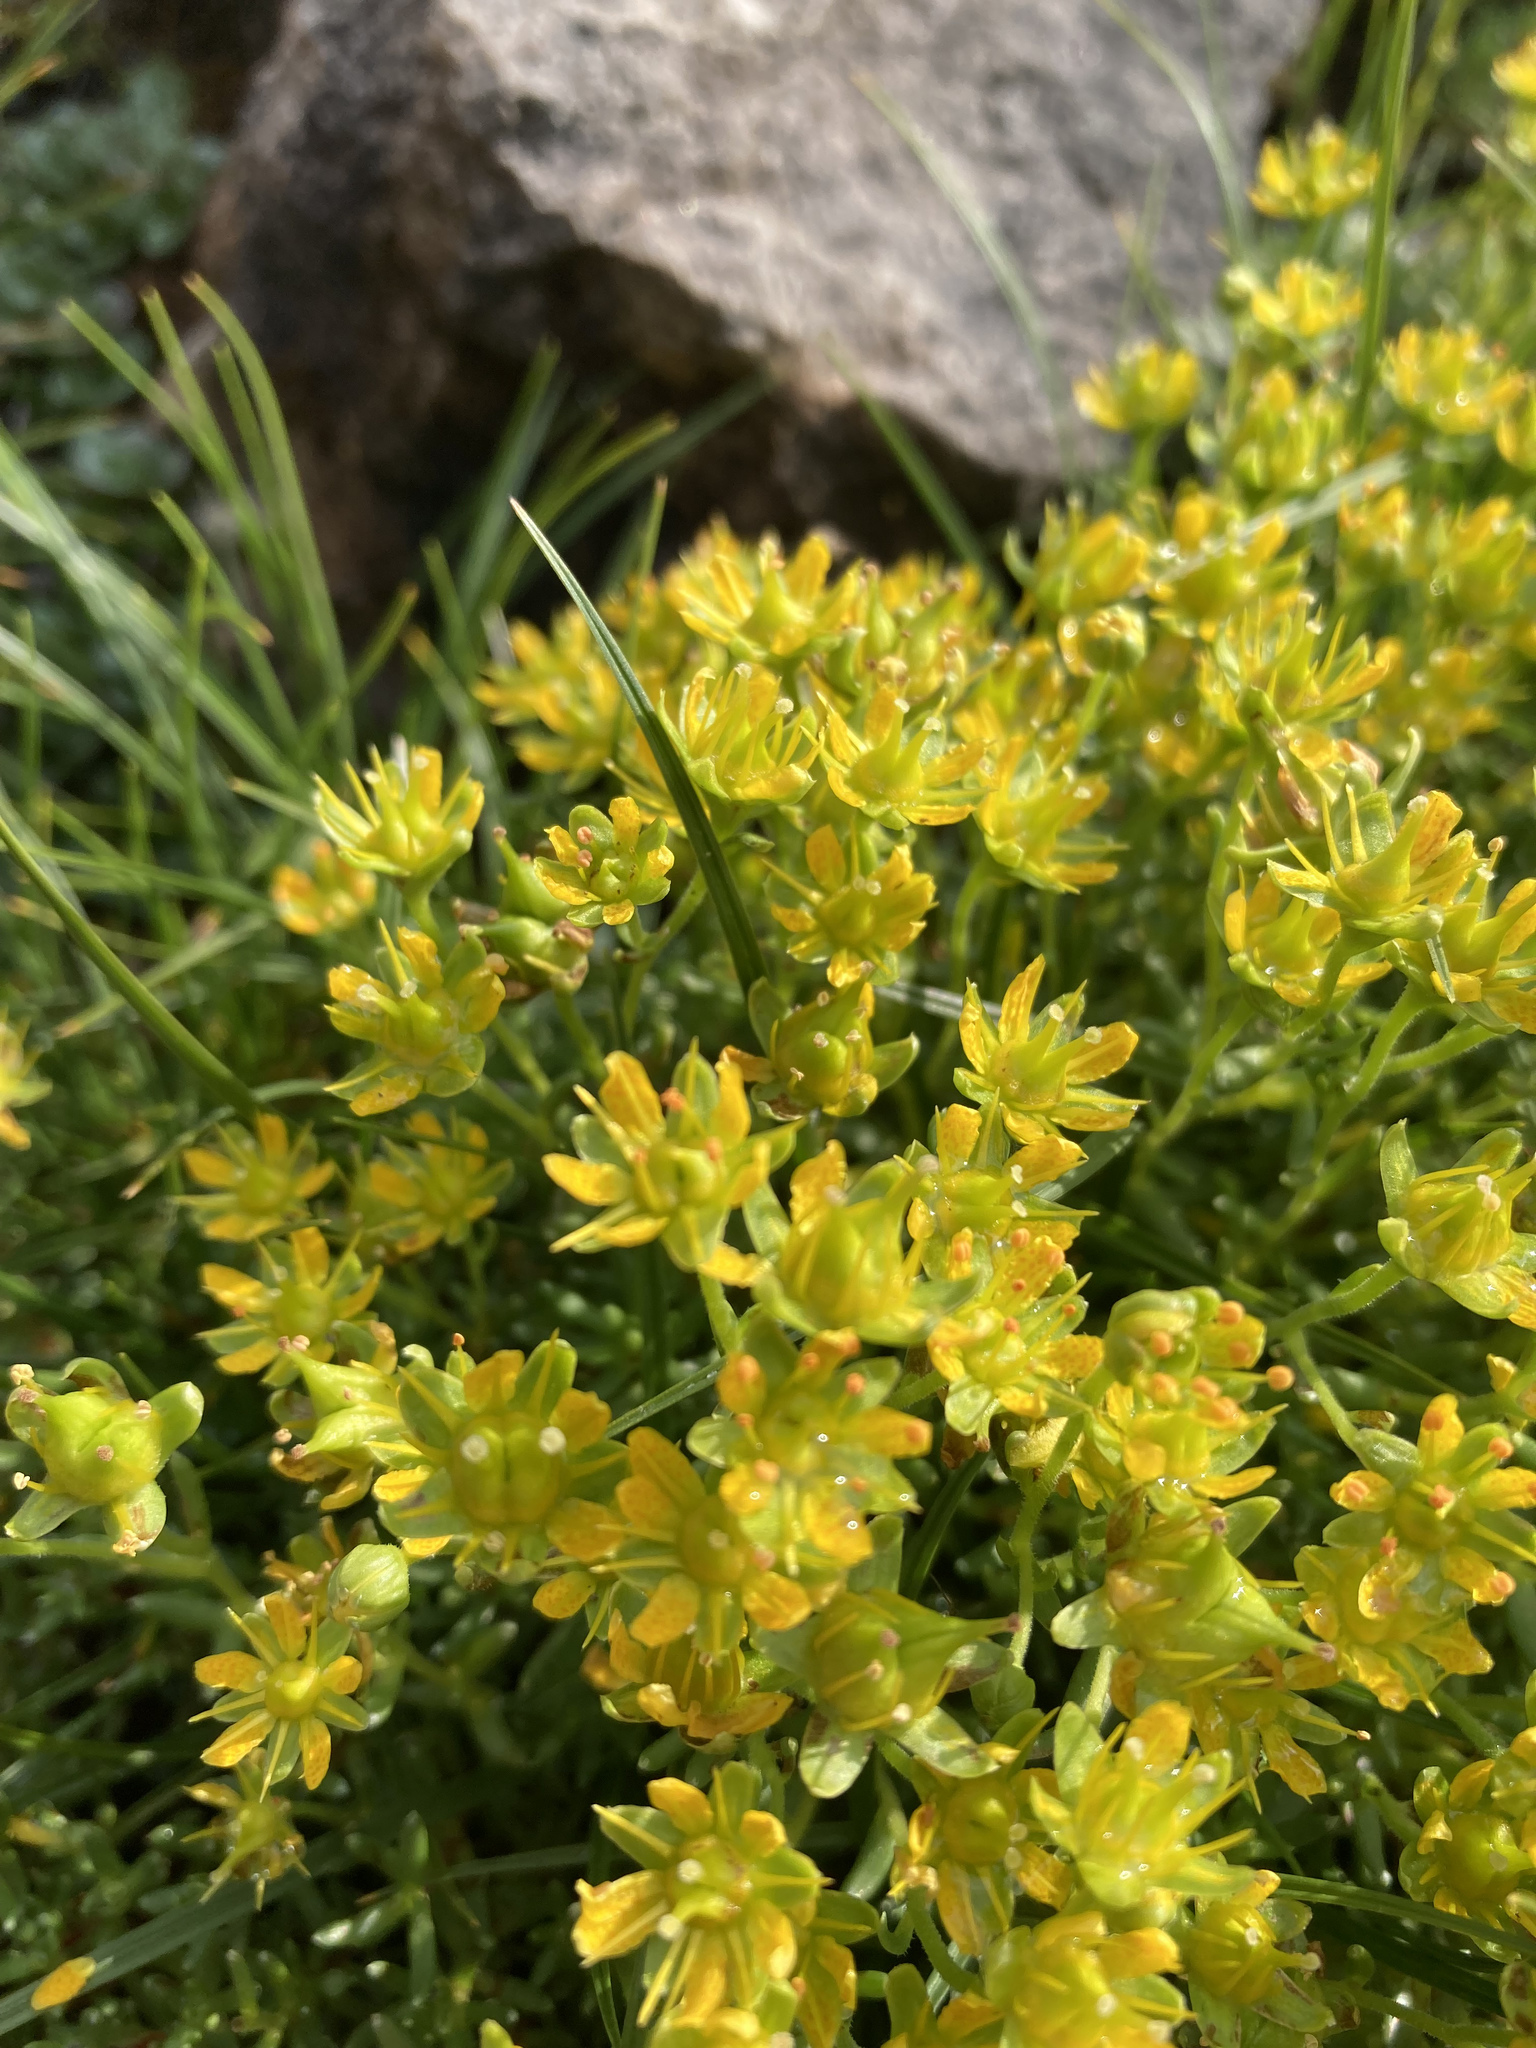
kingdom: Plantae
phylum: Tracheophyta
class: Magnoliopsida
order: Saxifragales
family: Saxifragaceae
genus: Saxifraga
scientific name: Saxifraga aizoides
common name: Yellow mountain saxifrage
